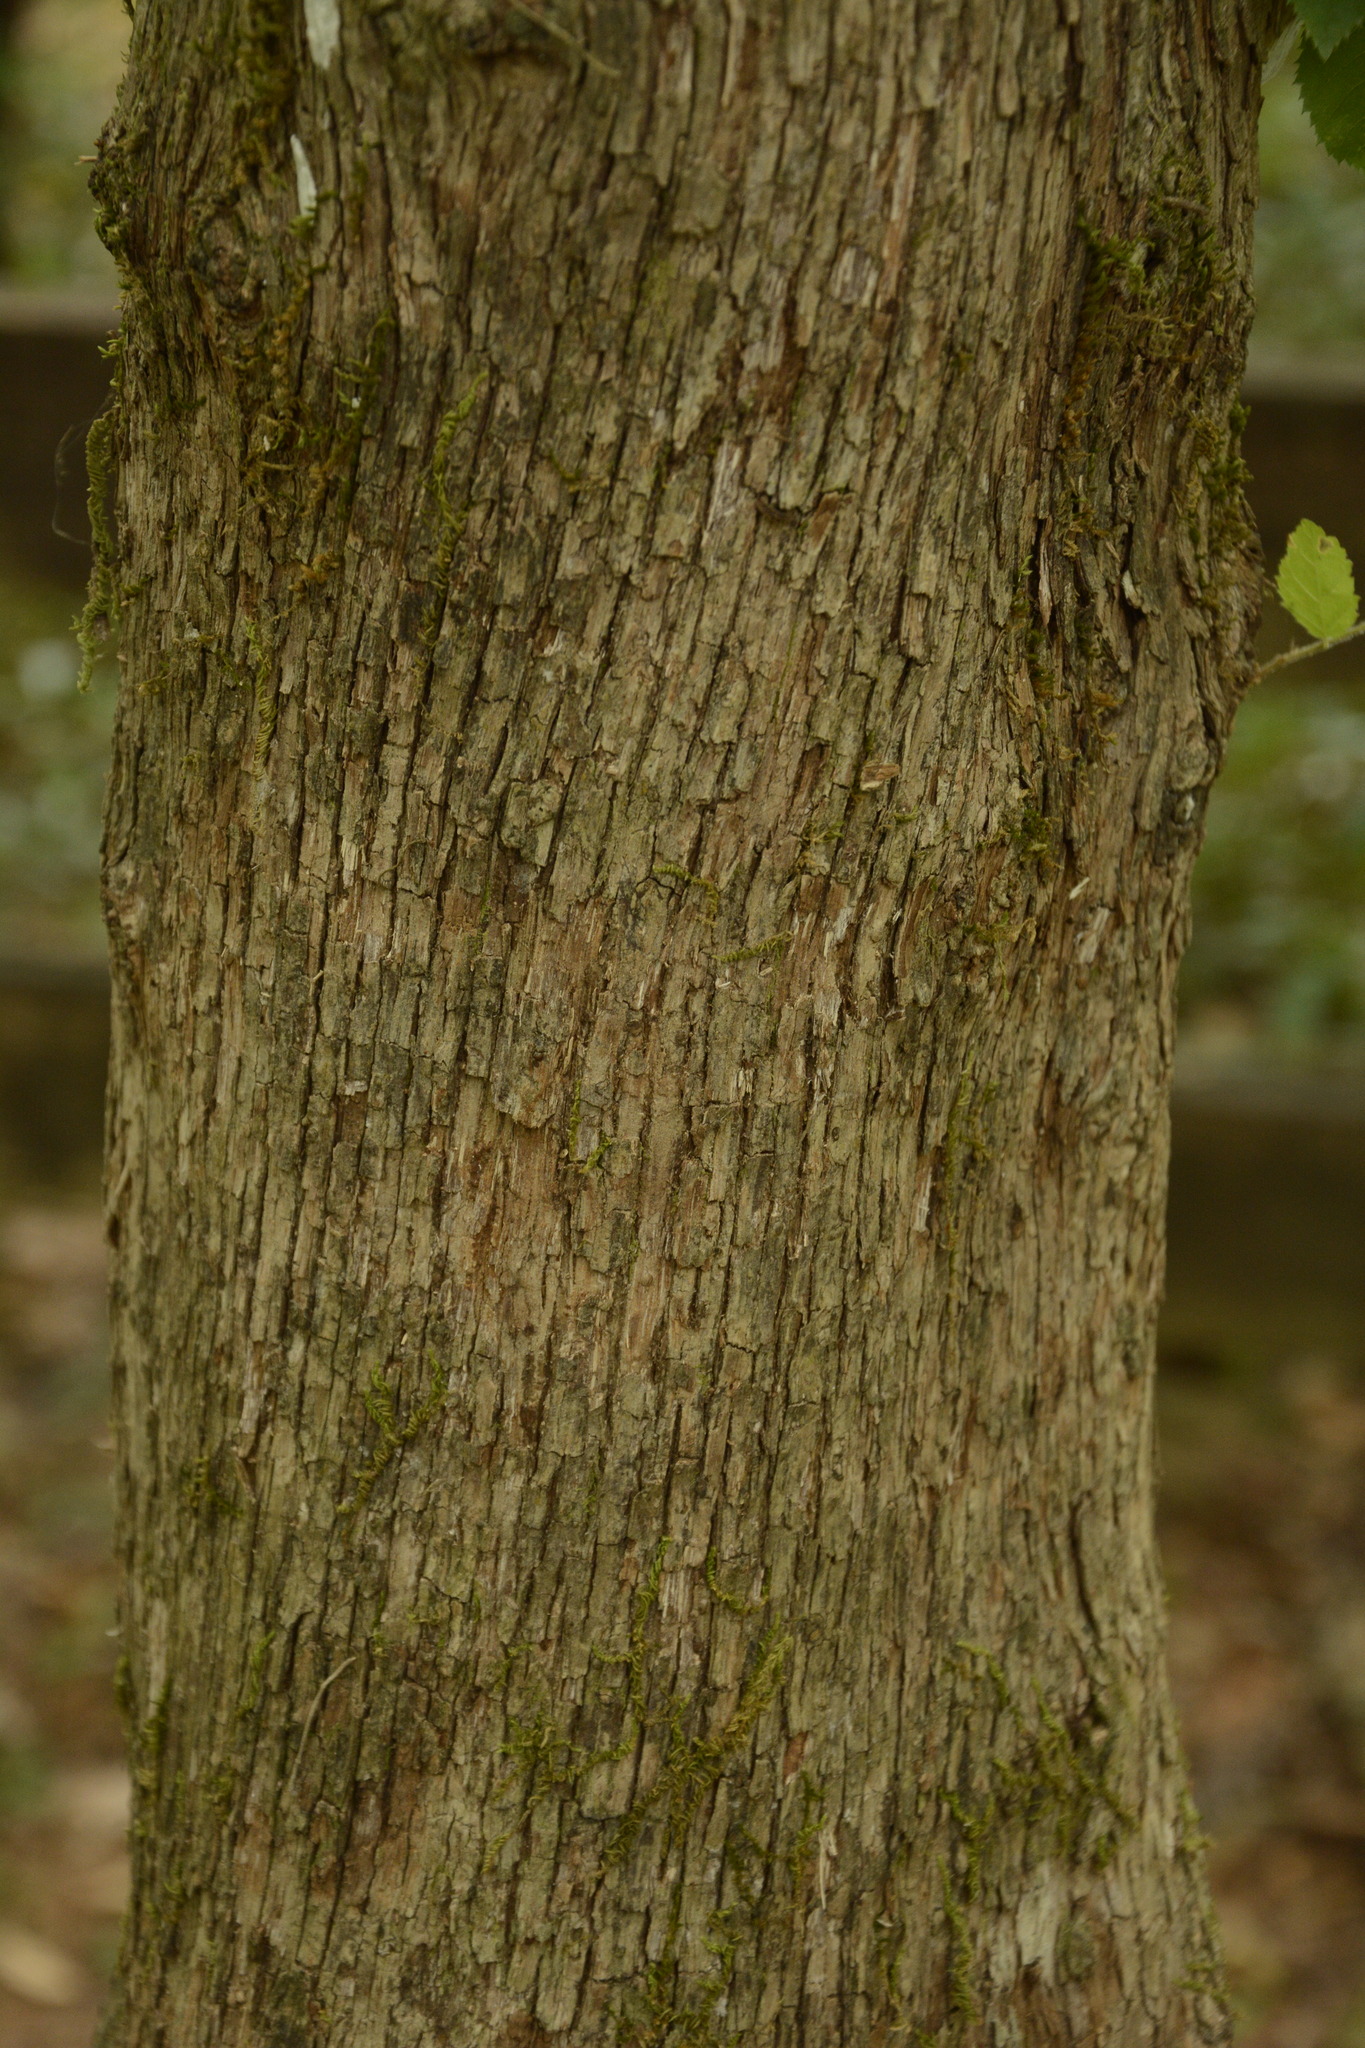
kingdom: Plantae
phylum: Tracheophyta
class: Magnoliopsida
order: Fagales
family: Betulaceae
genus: Ostrya
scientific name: Ostrya virginiana
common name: Ironwood
